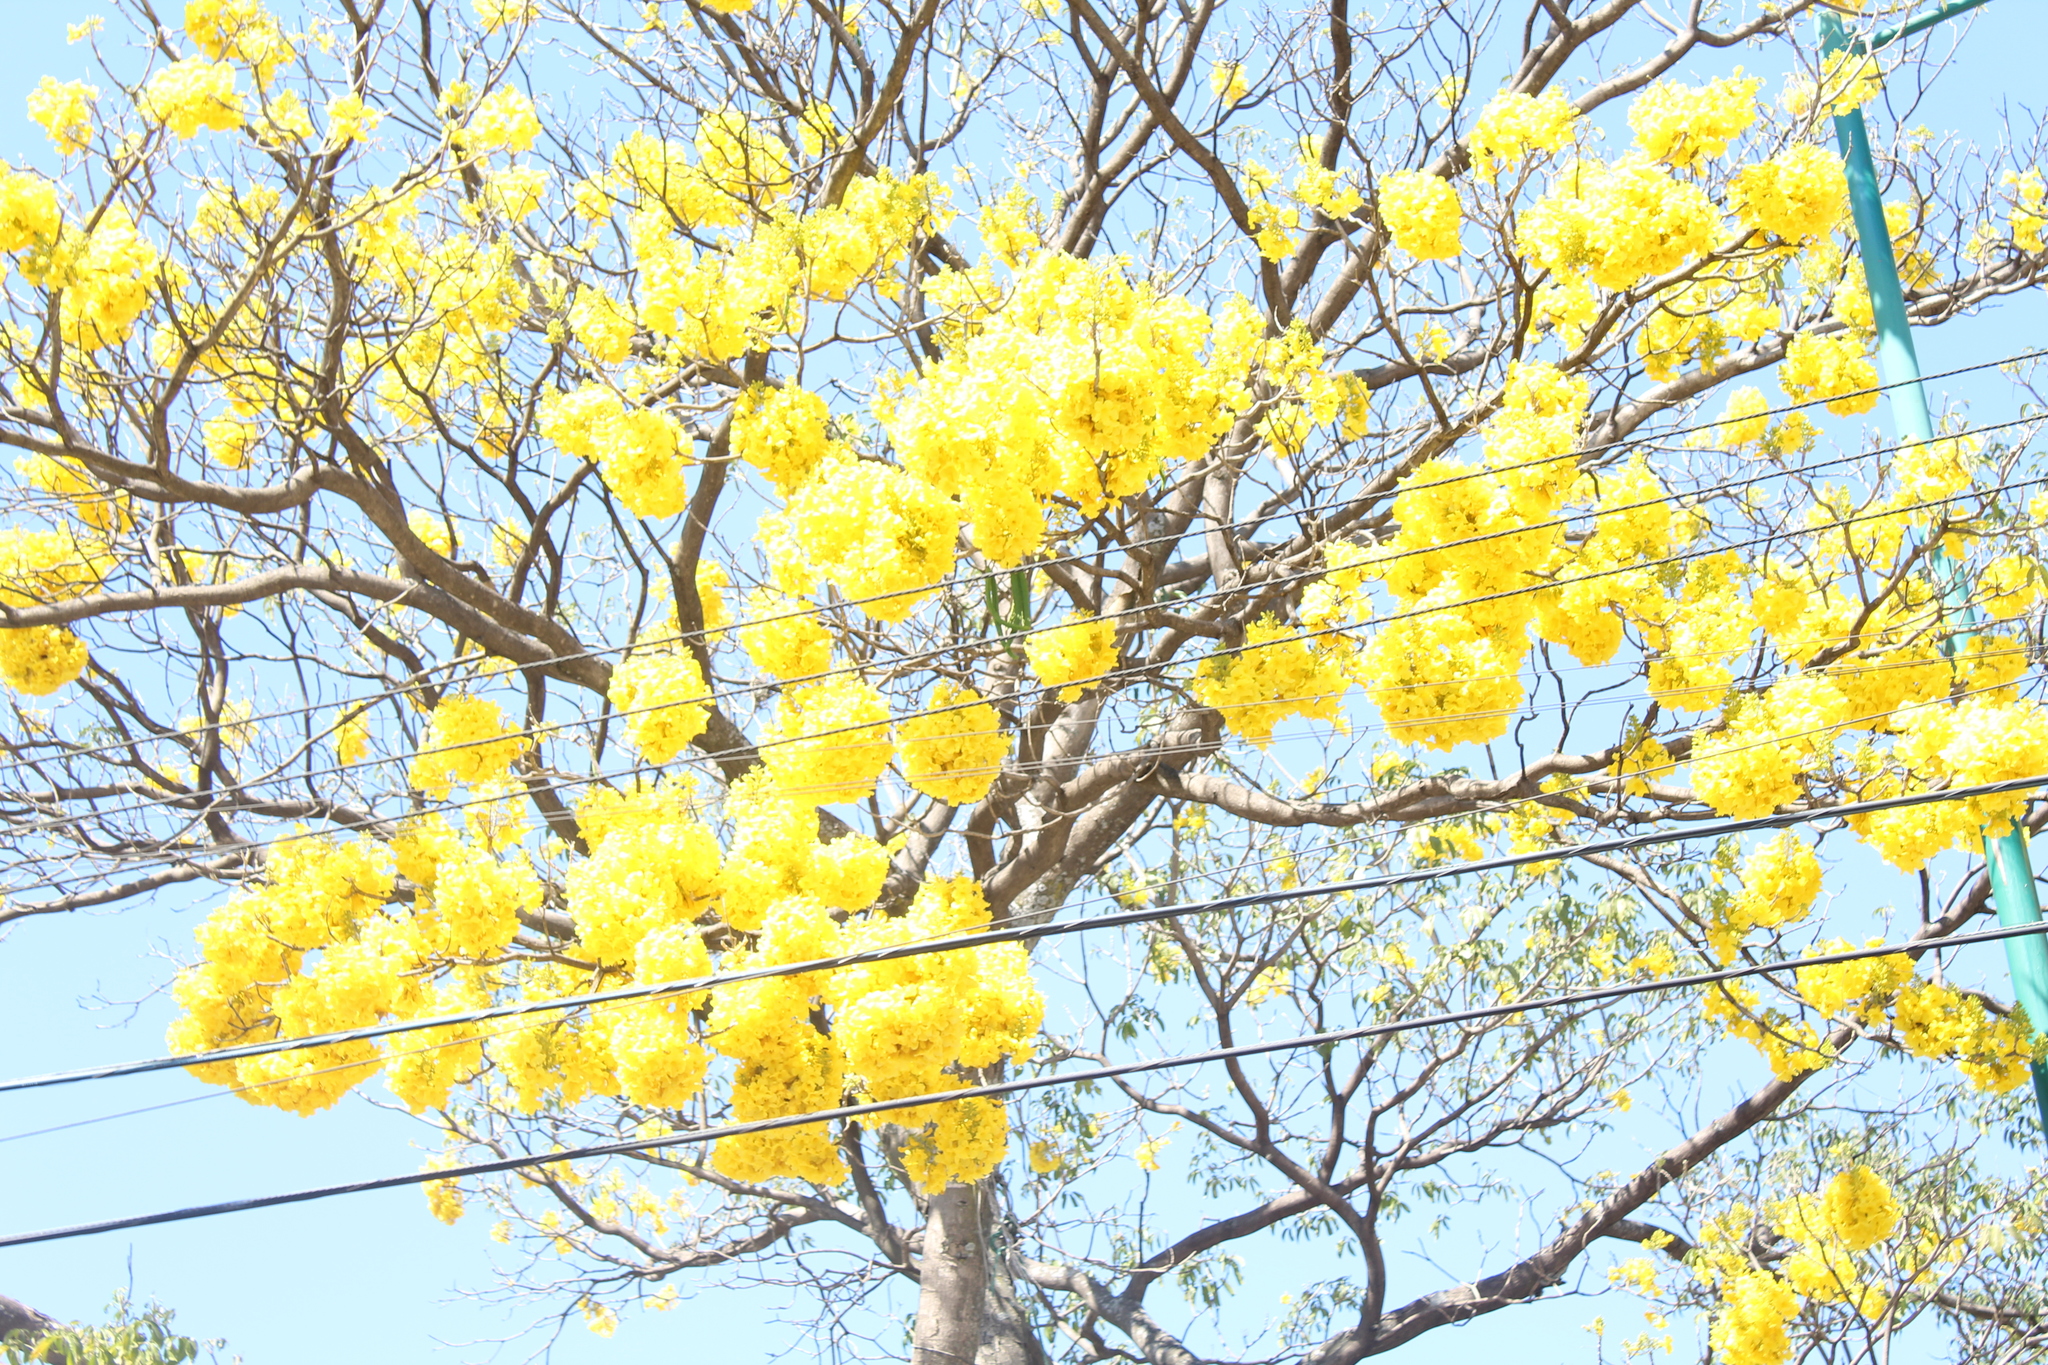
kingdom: Plantae
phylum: Tracheophyta
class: Magnoliopsida
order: Lamiales
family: Bignoniaceae
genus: Handroanthus
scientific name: Handroanthus chrysanthus
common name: Trumpet trees
